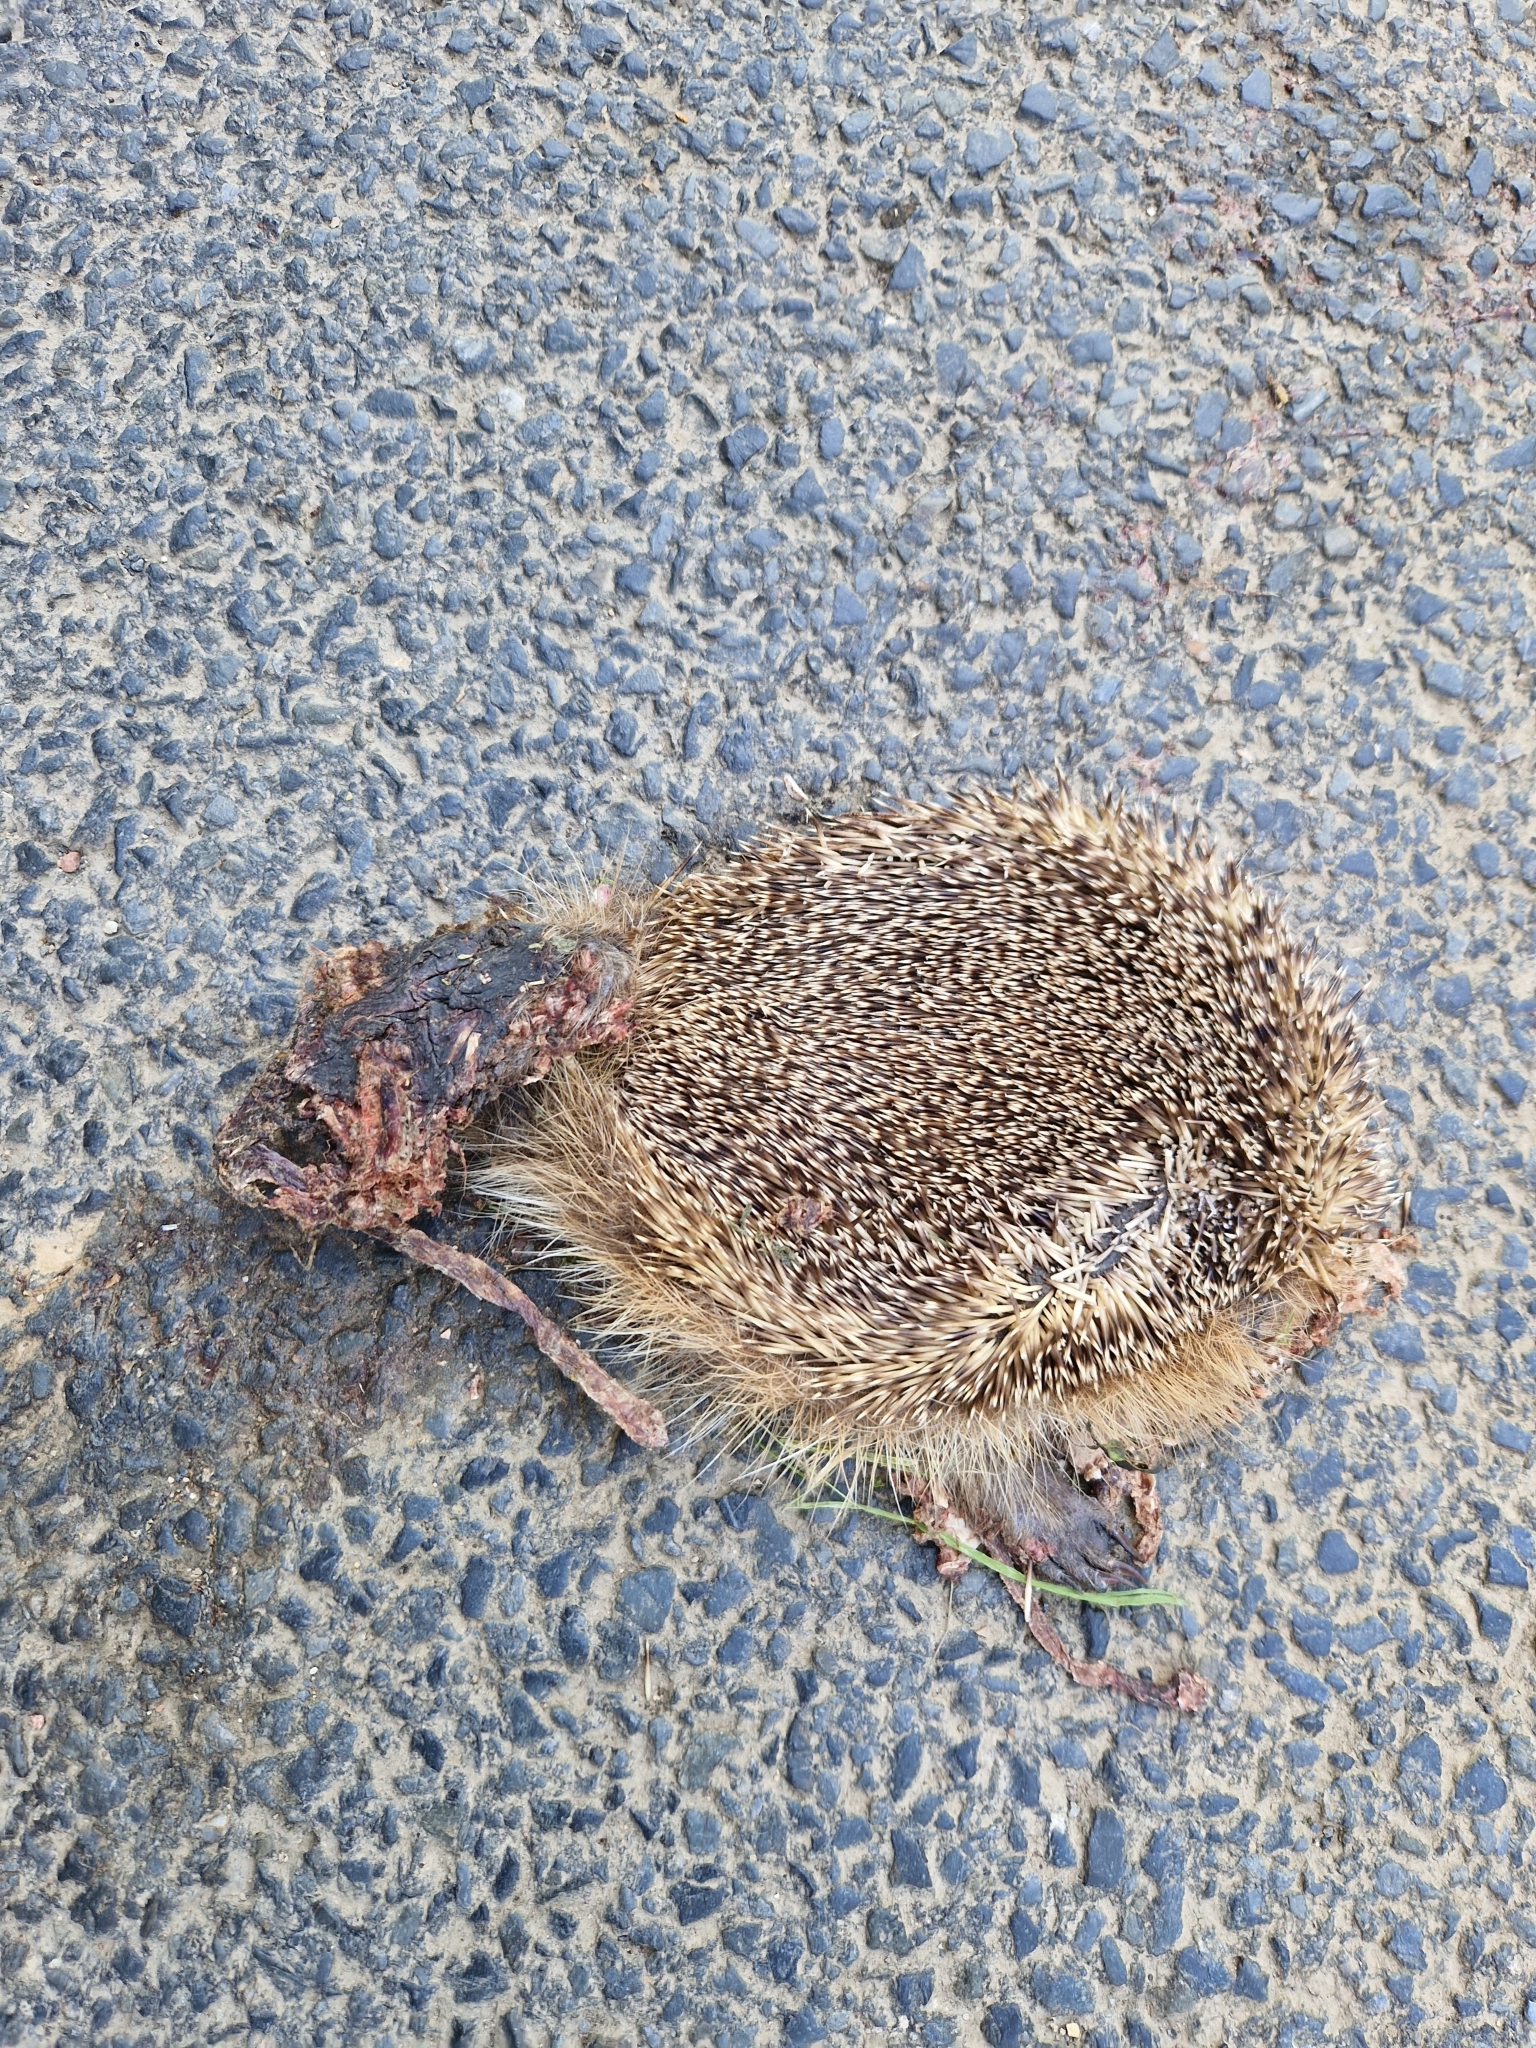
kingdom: Animalia
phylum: Chordata
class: Mammalia
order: Erinaceomorpha
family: Erinaceidae
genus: Erinaceus
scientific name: Erinaceus europaeus
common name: West european hedgehog
